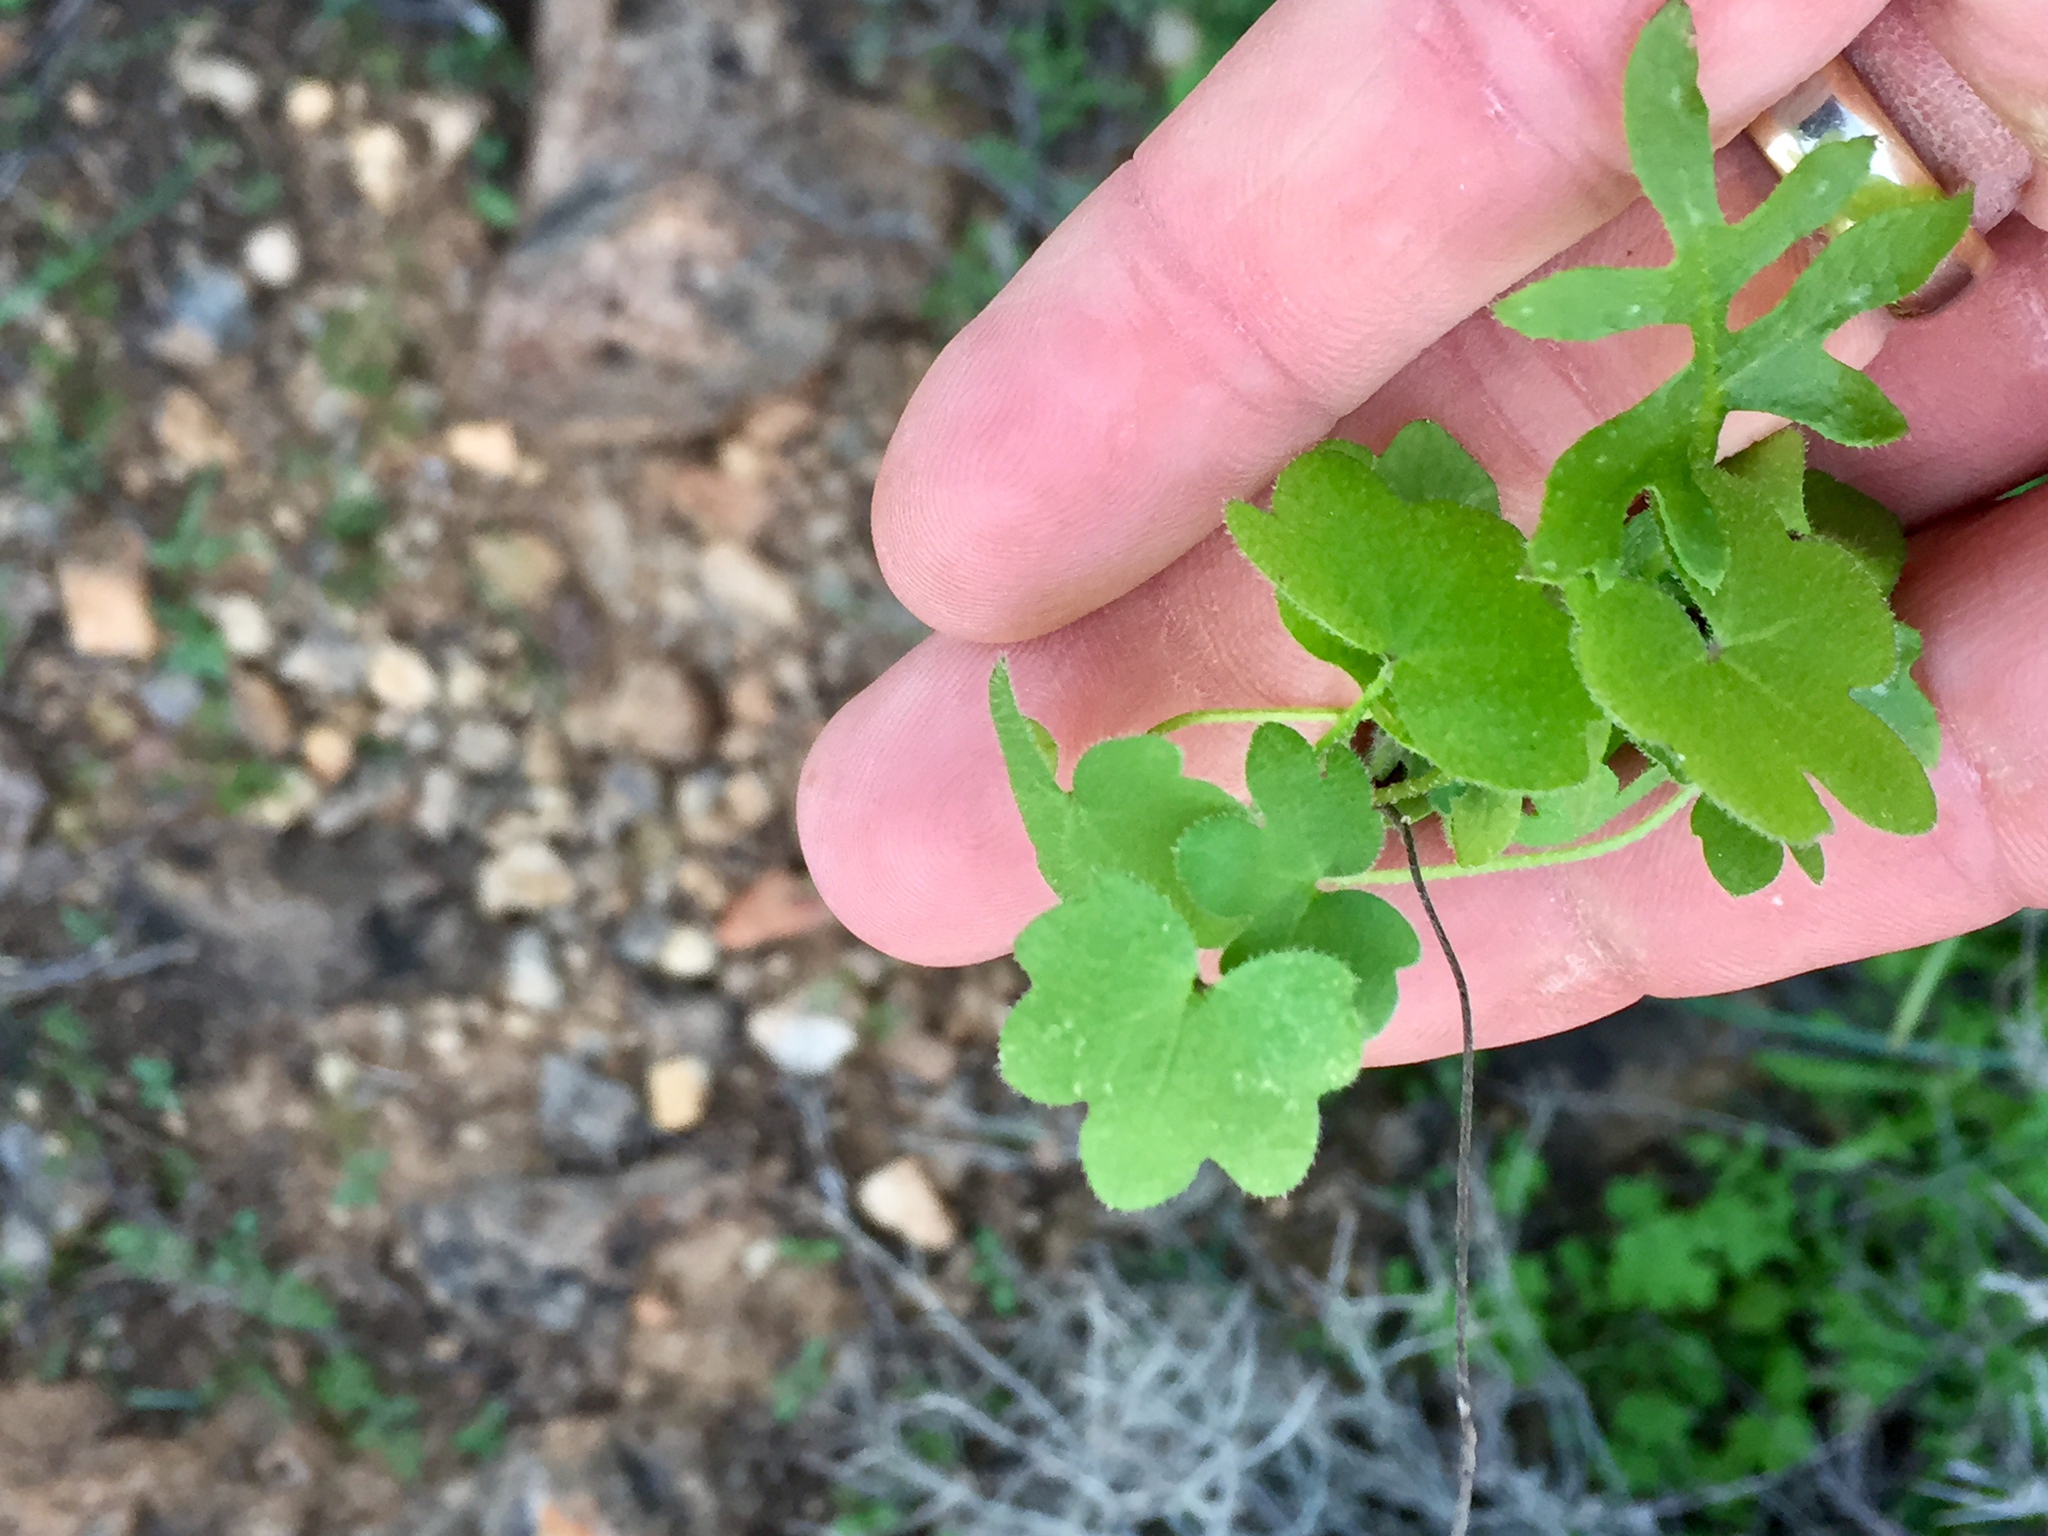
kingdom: Plantae
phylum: Tracheophyta
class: Magnoliopsida
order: Apiales
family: Apiaceae
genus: Bowlesia
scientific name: Bowlesia incana
